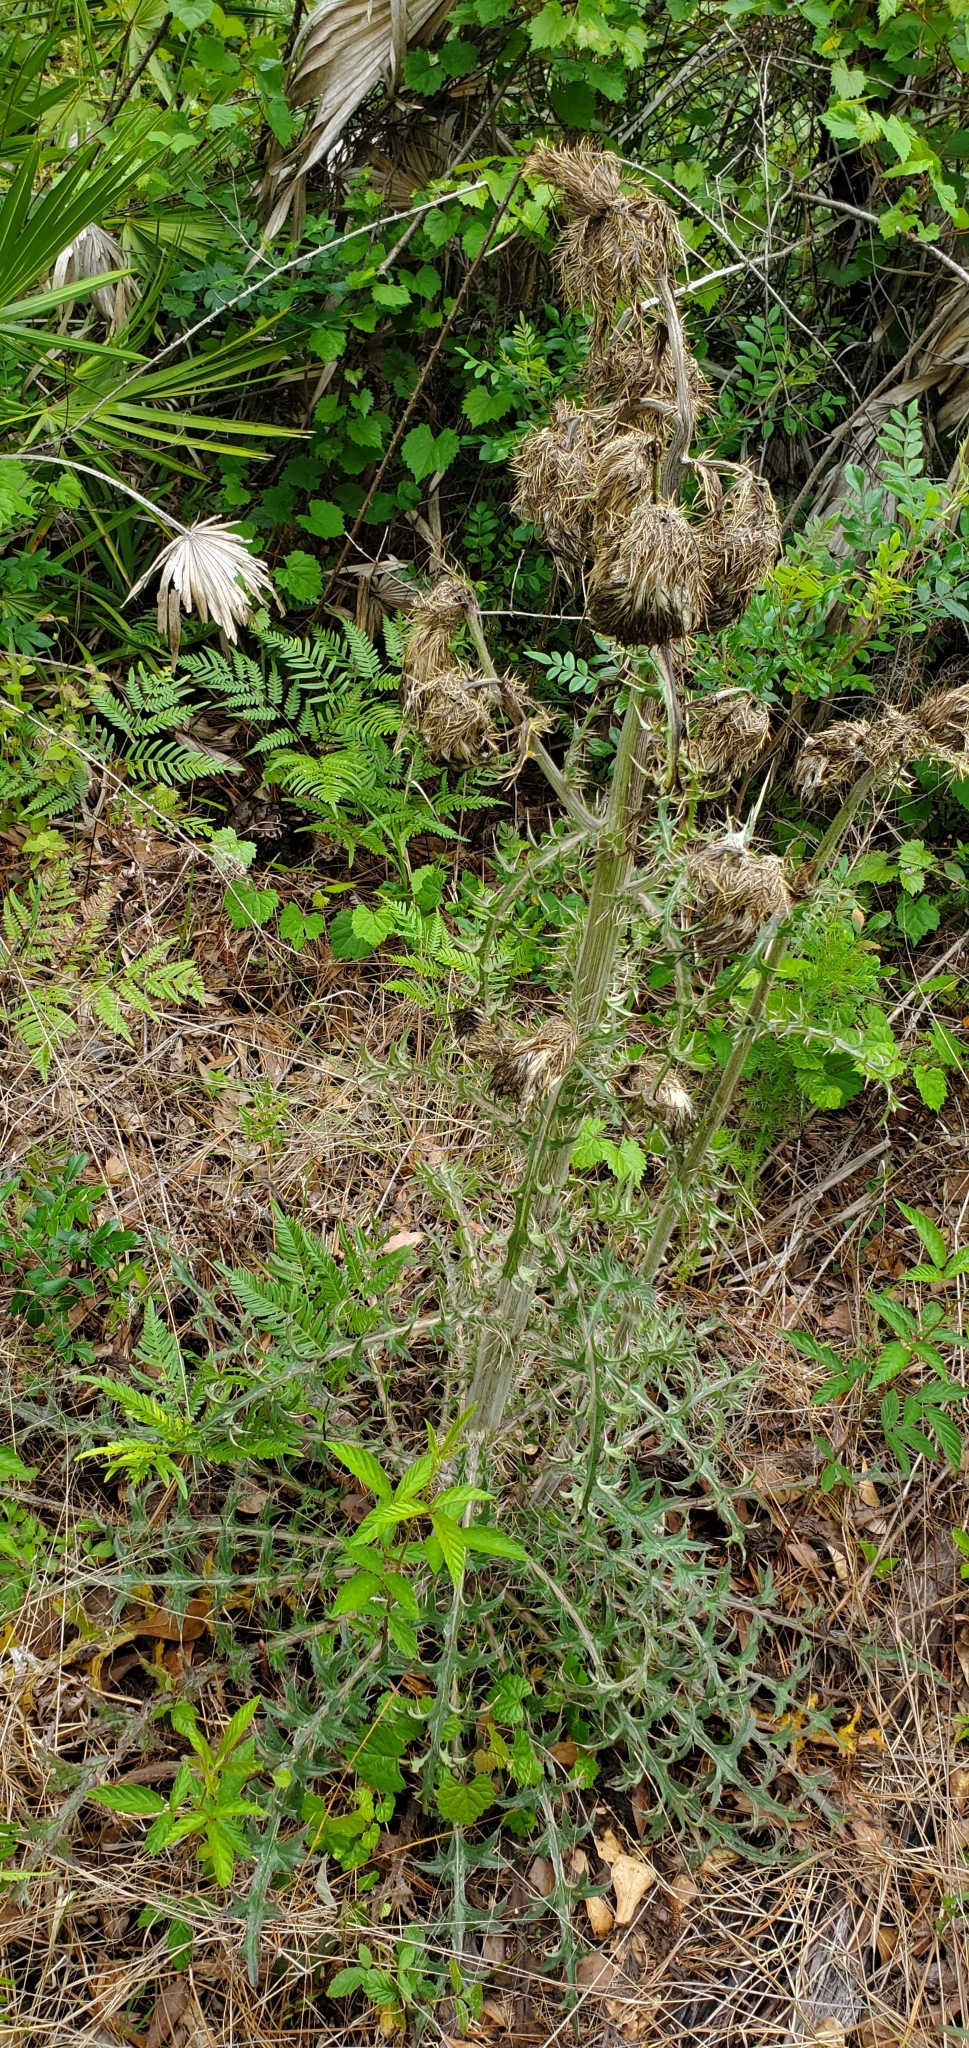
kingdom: Plantae
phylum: Tracheophyta
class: Magnoliopsida
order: Asterales
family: Asteraceae
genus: Cirsium
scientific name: Cirsium horridulum
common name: Bristly thistle
